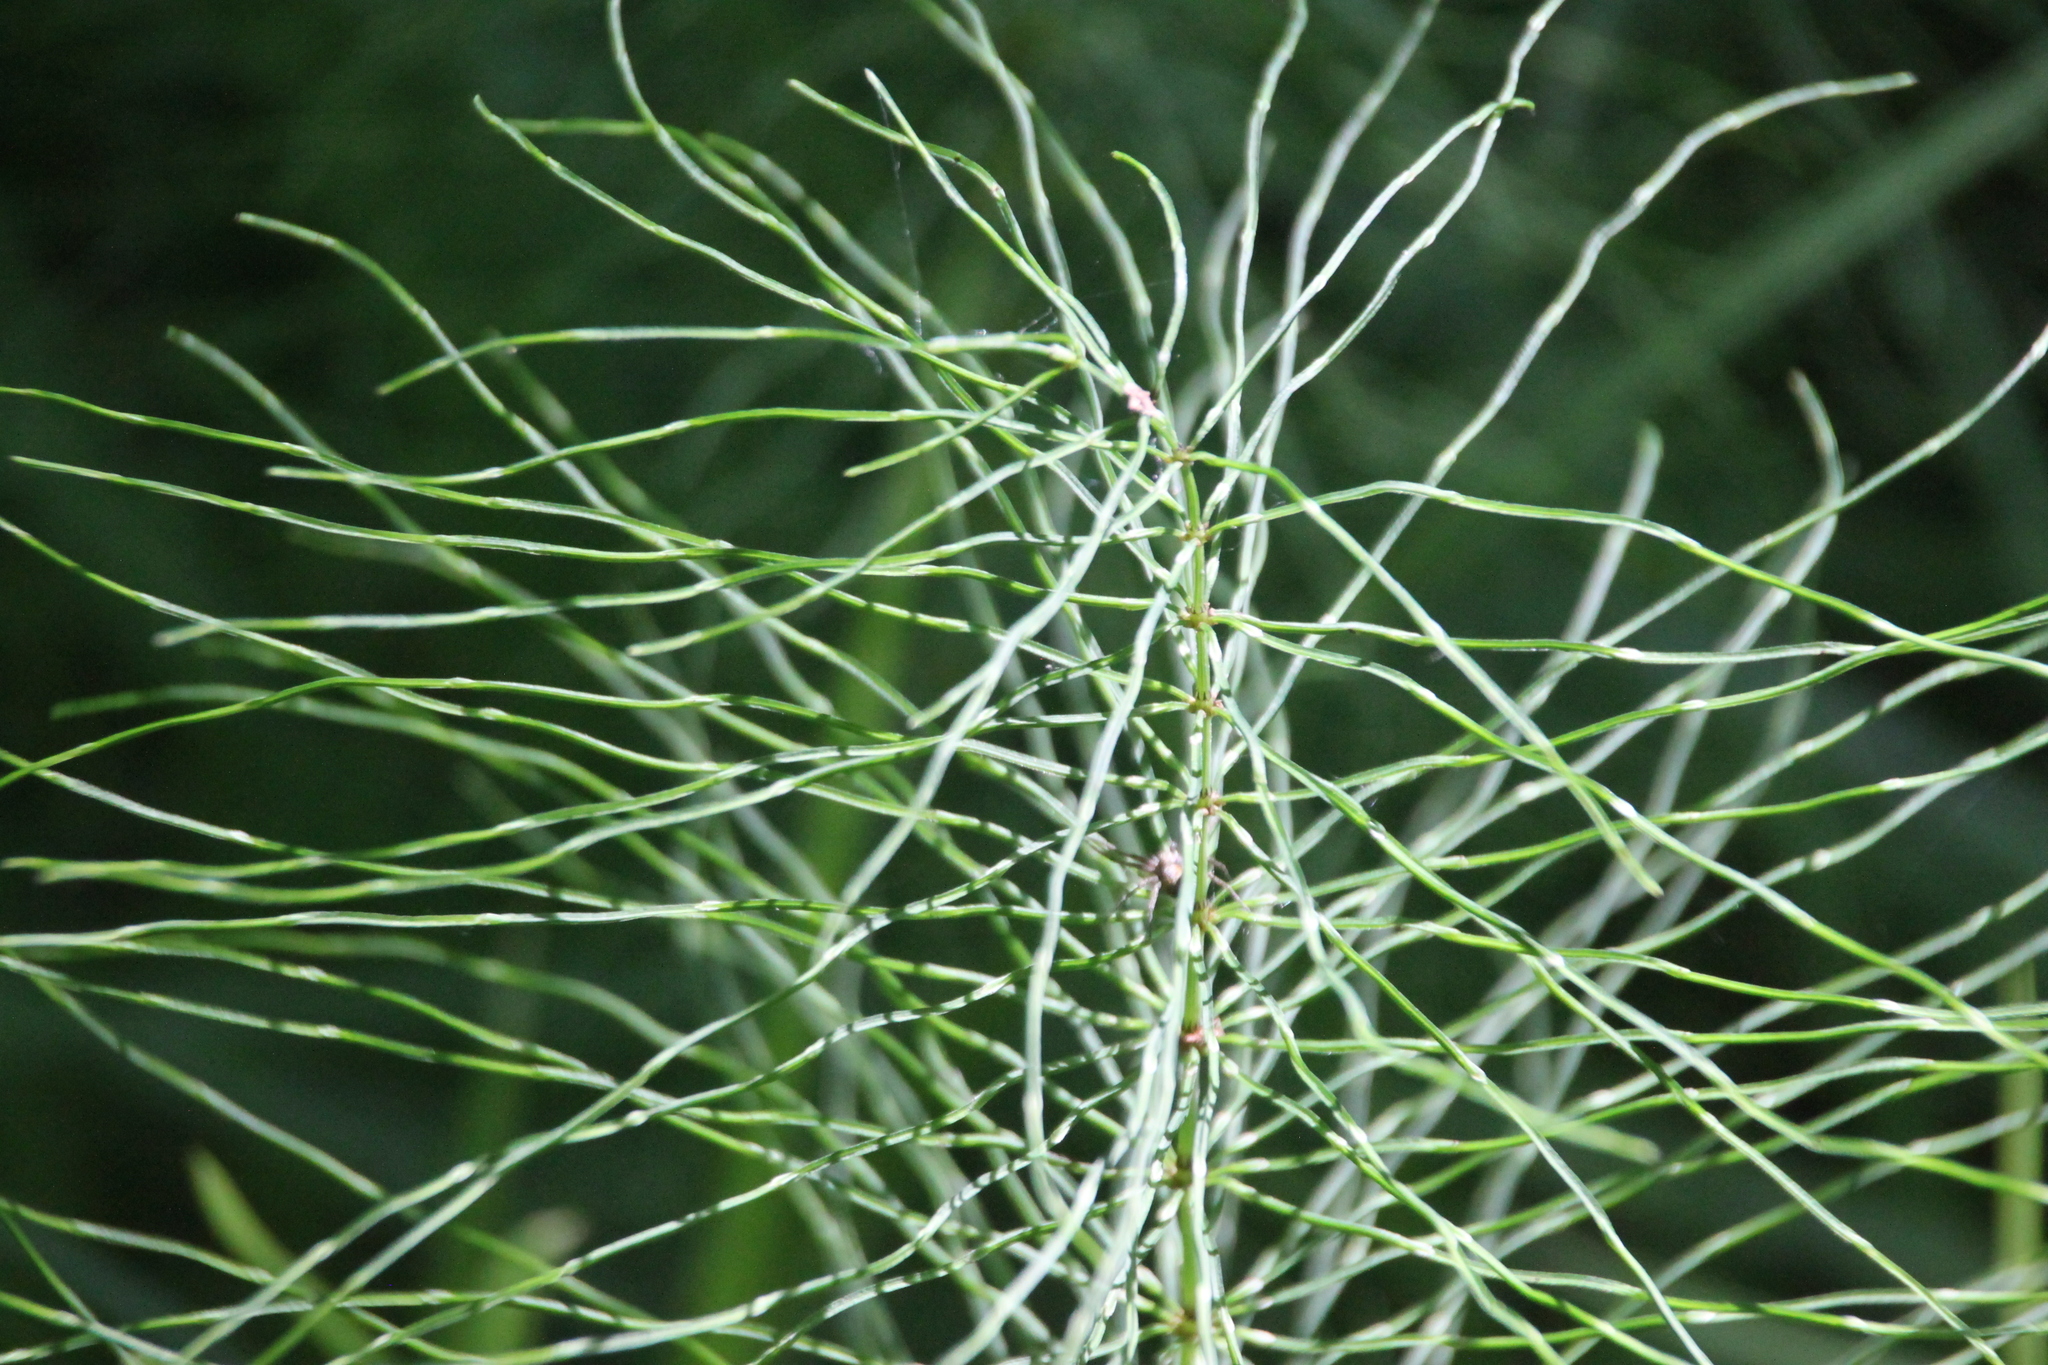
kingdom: Plantae
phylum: Tracheophyta
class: Polypodiopsida
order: Equisetales
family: Equisetaceae
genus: Equisetum
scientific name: Equisetum pratense
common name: Meadow horsetail
